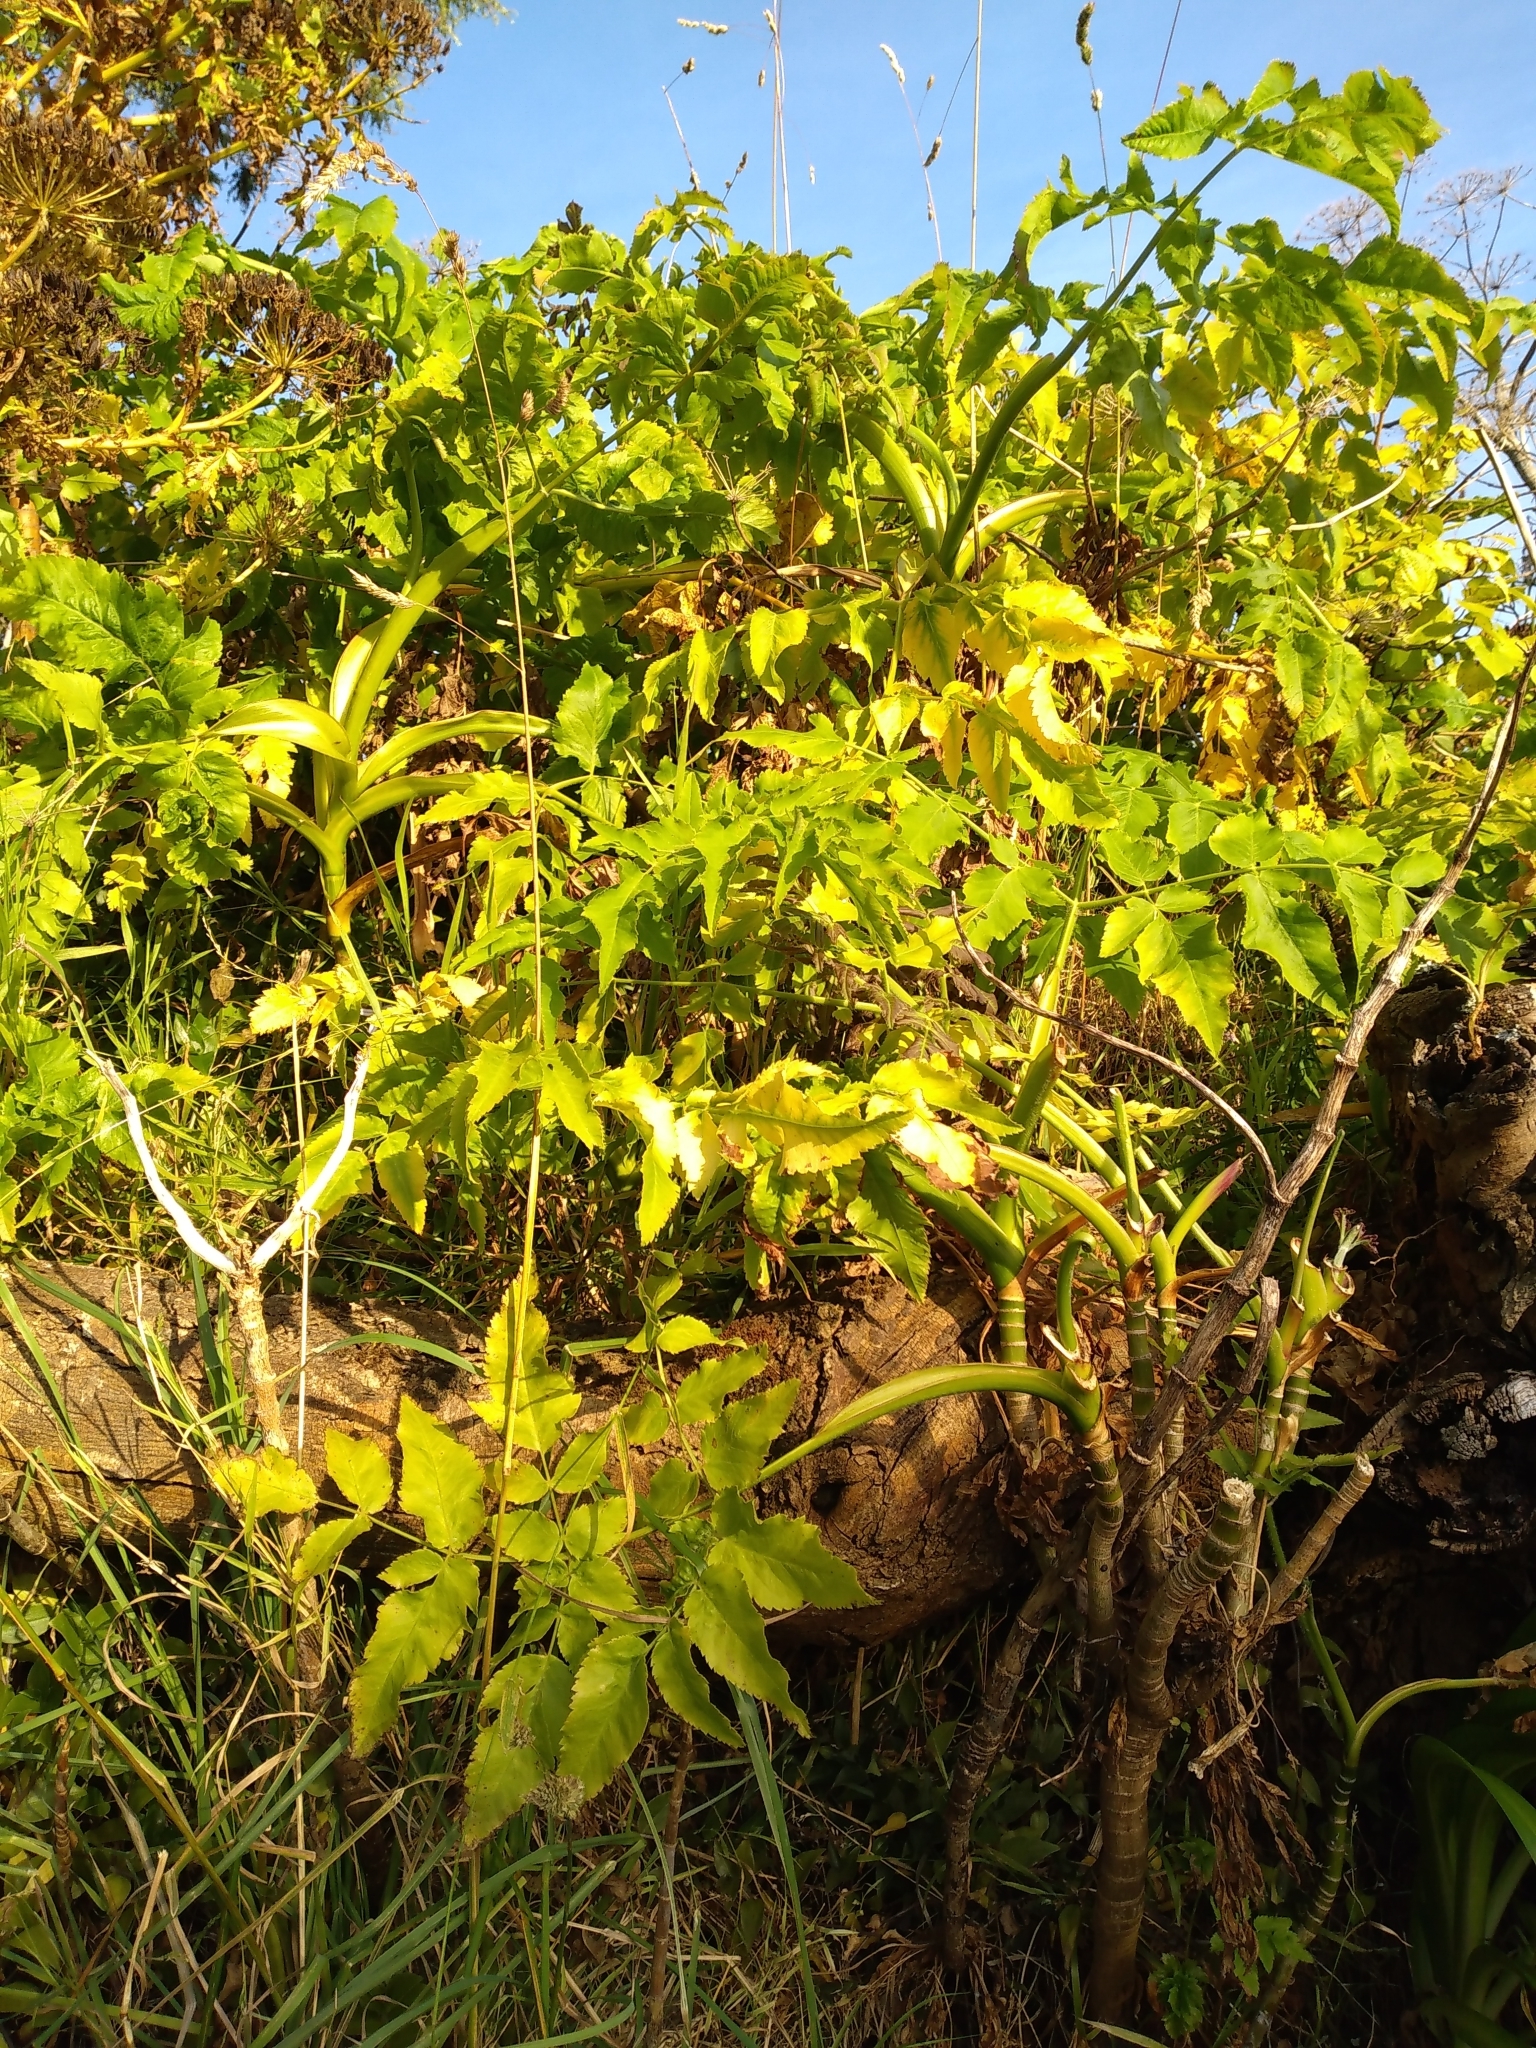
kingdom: Plantae
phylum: Tracheophyta
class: Magnoliopsida
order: Apiales
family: Apiaceae
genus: Daucus
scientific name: Daucus decipiens
